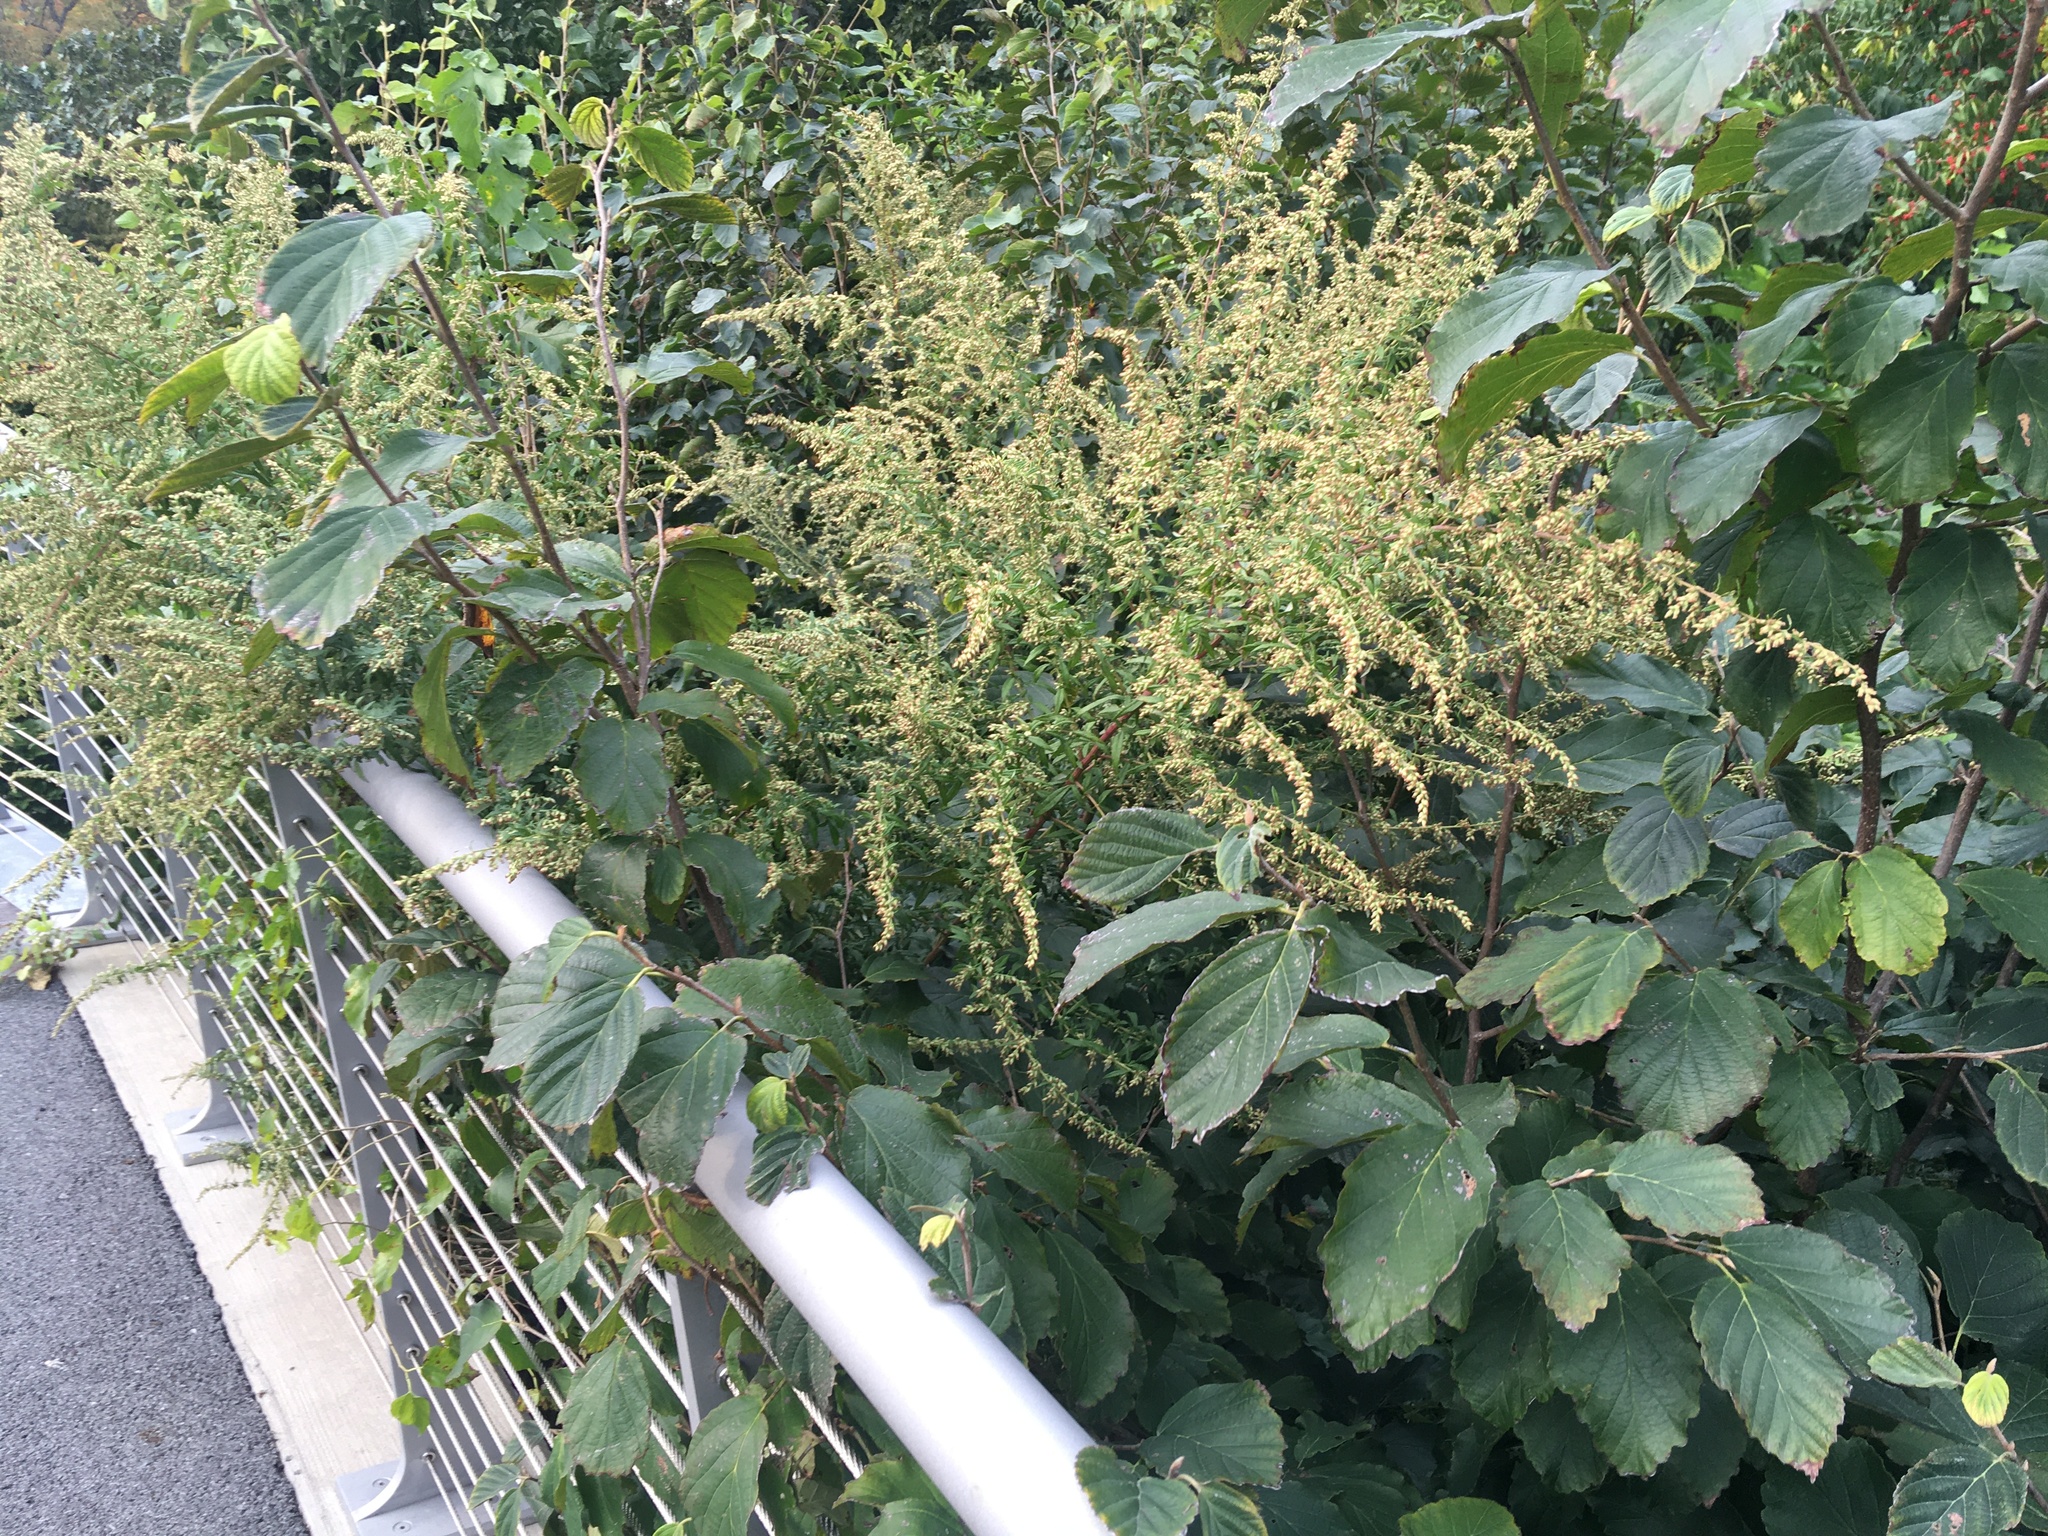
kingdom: Plantae
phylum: Tracheophyta
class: Magnoliopsida
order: Asterales
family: Asteraceae
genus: Artemisia
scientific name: Artemisia vulgaris
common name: Mugwort
